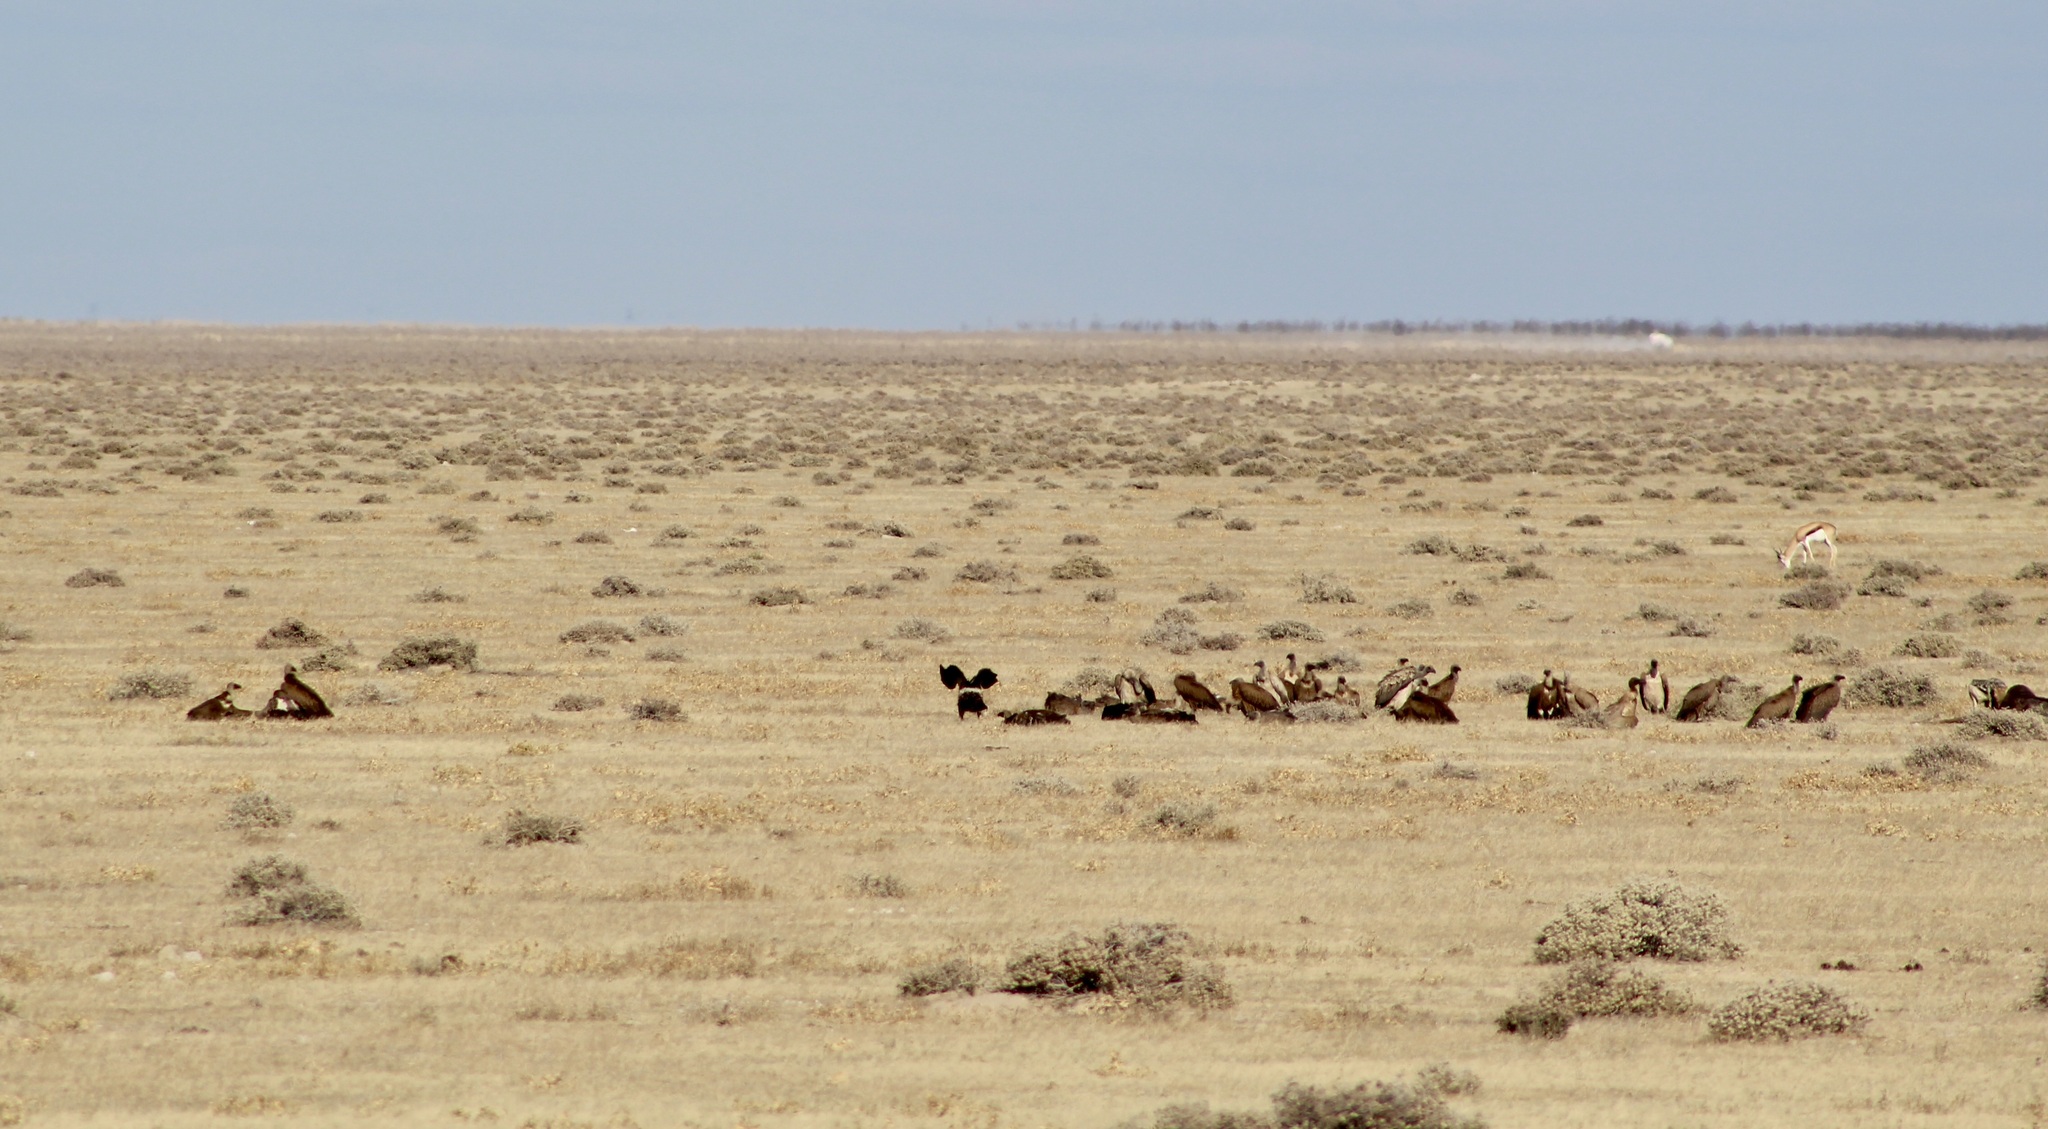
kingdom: Animalia
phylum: Chordata
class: Aves
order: Accipitriformes
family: Accipitridae
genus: Gyps
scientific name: Gyps africanus
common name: White-backed vulture
